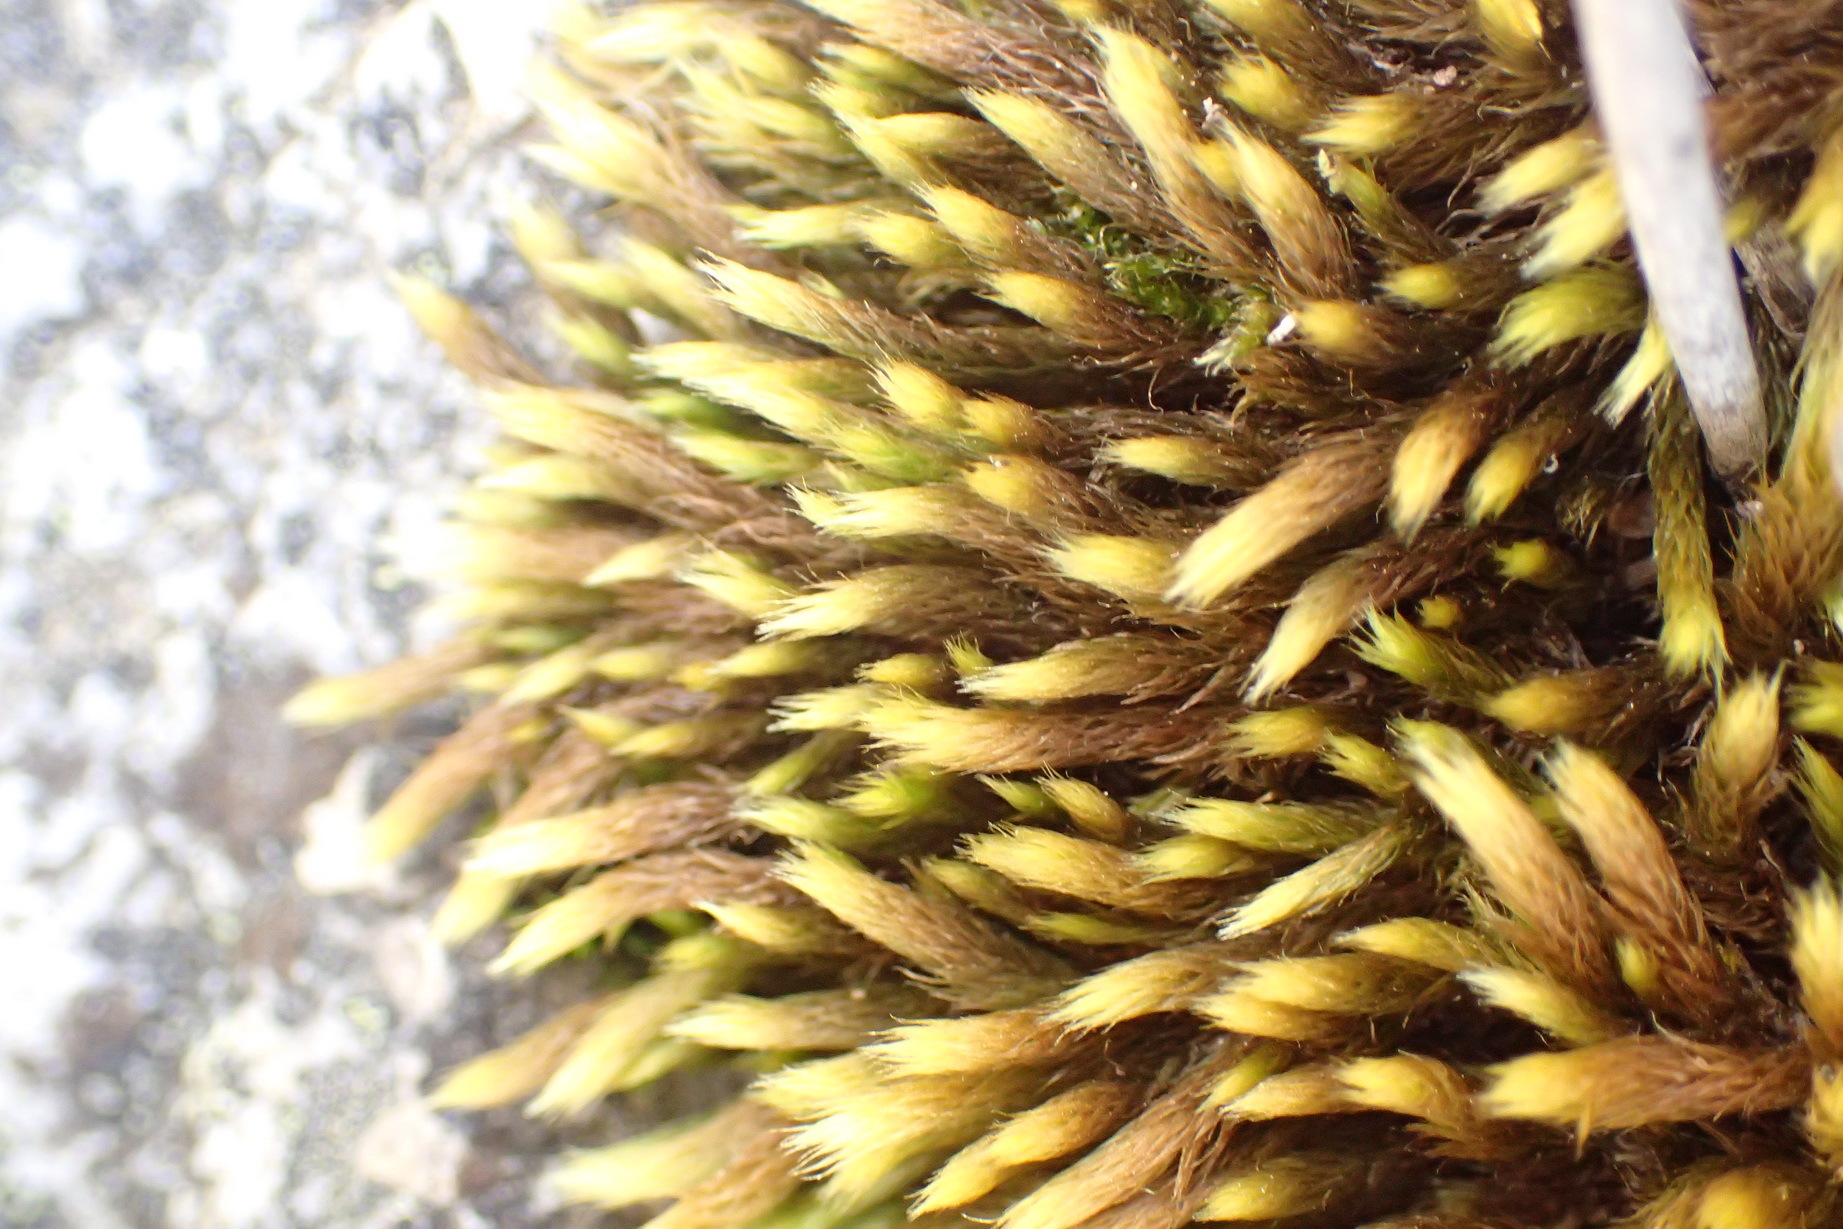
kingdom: Plantae
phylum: Bryophyta
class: Bryopsida
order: Bartramiales
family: Bartramiaceae
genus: Breutelia
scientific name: Breutelia substricta
